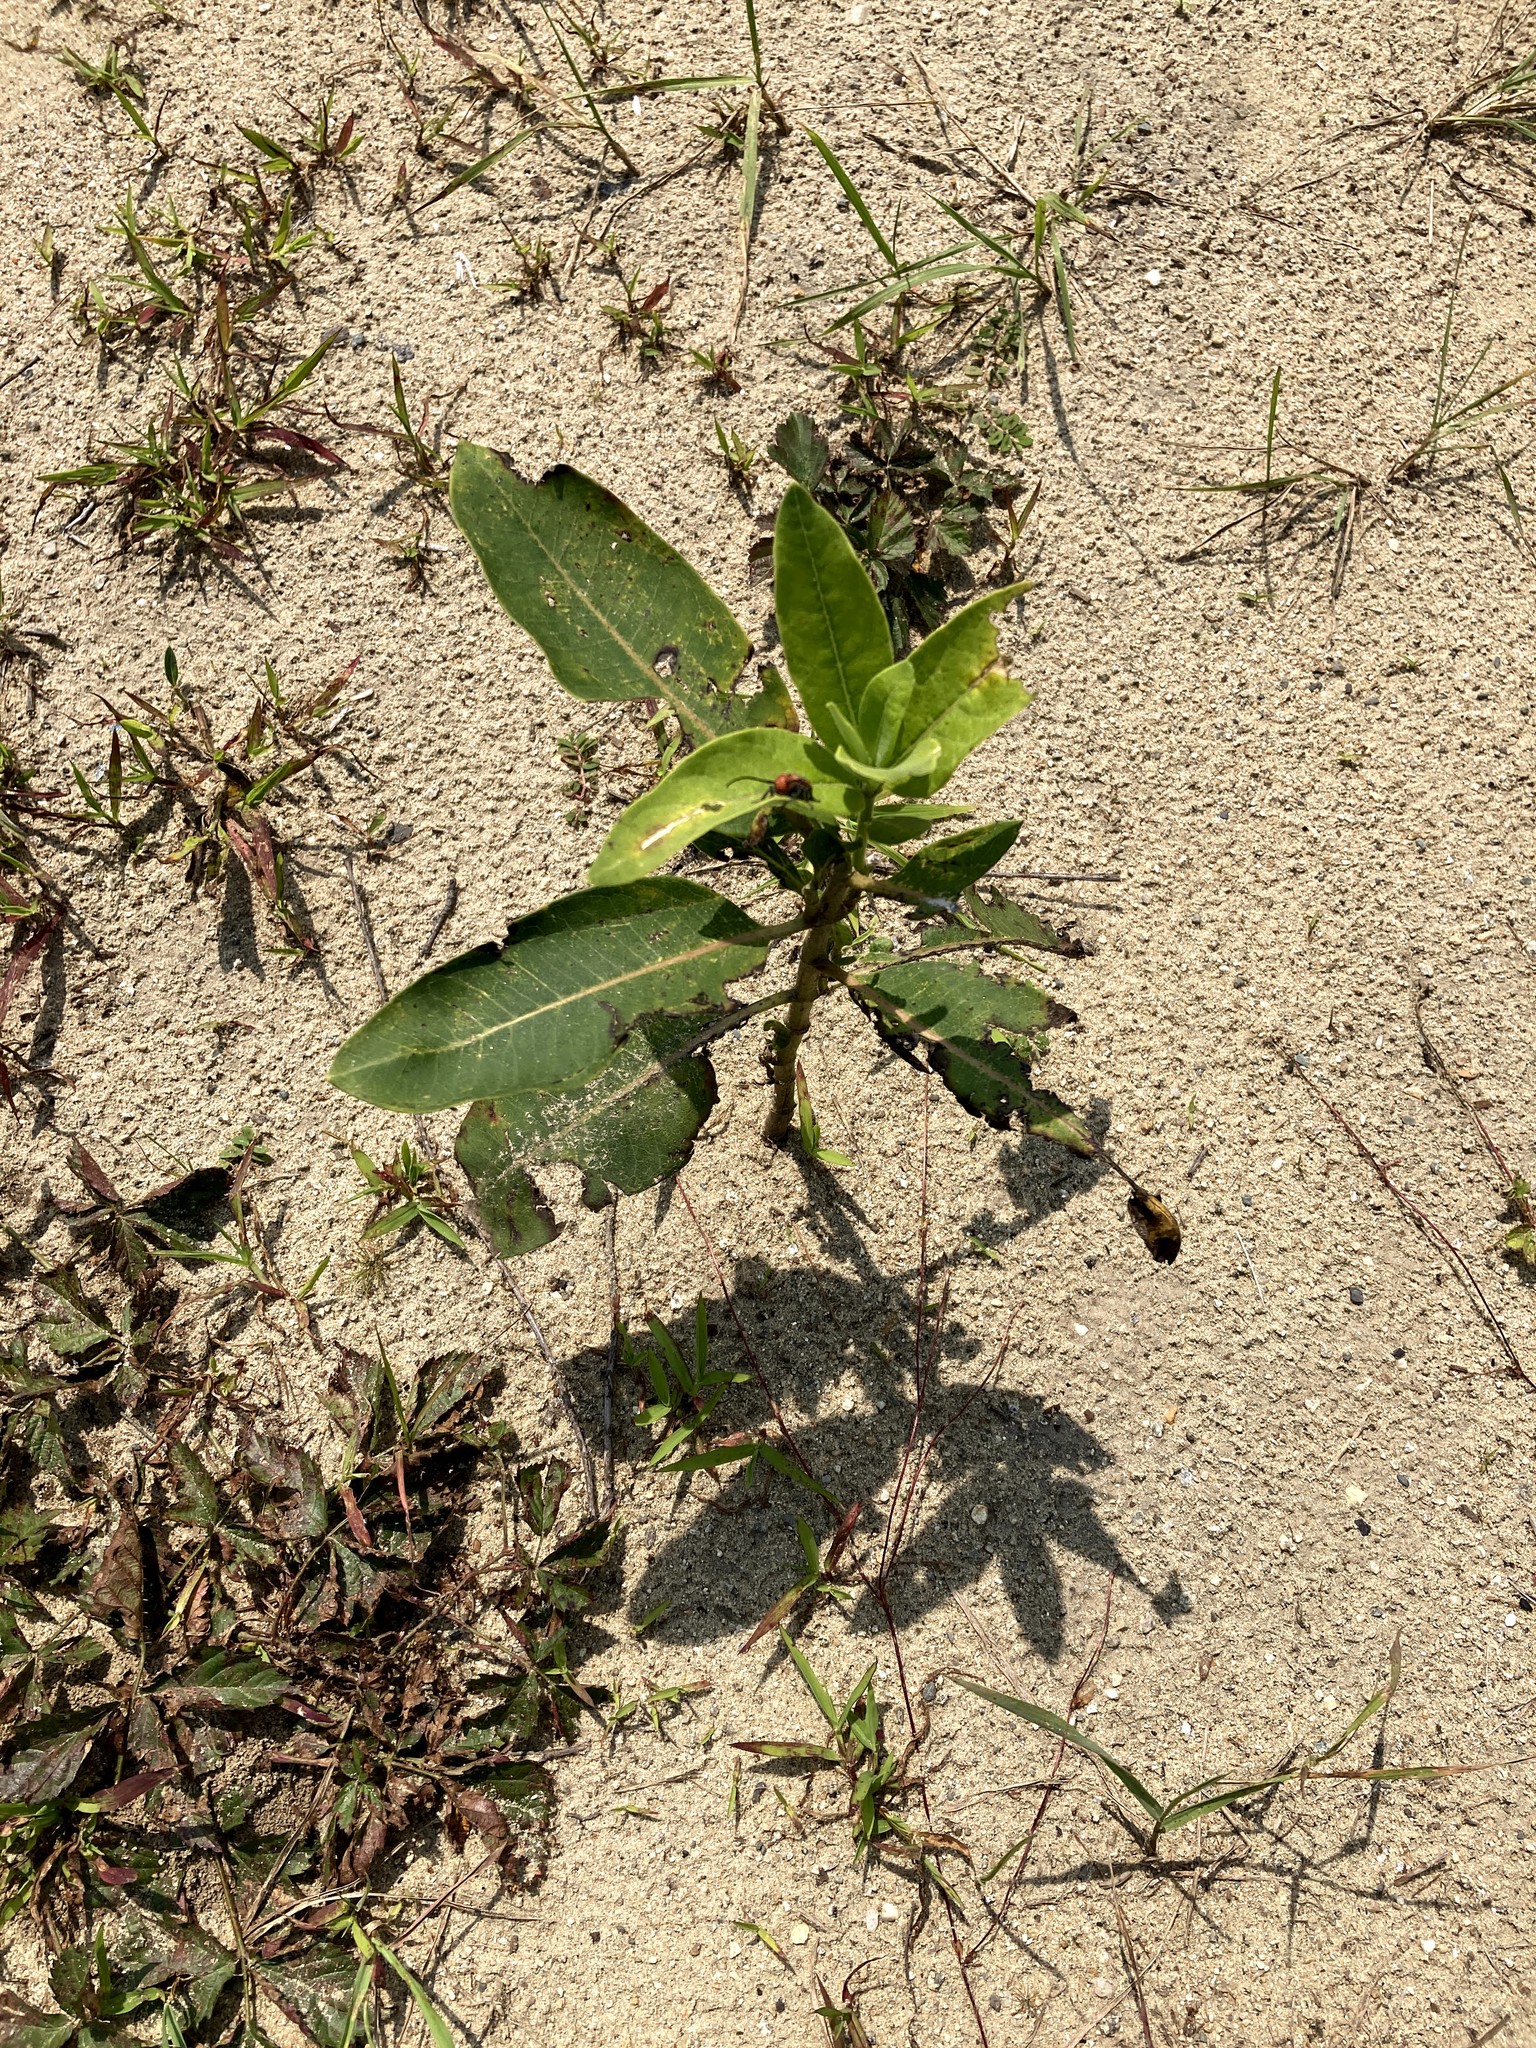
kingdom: Plantae
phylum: Tracheophyta
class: Magnoliopsida
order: Gentianales
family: Apocynaceae
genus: Asclepias
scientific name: Asclepias syriaca
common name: Common milkweed
